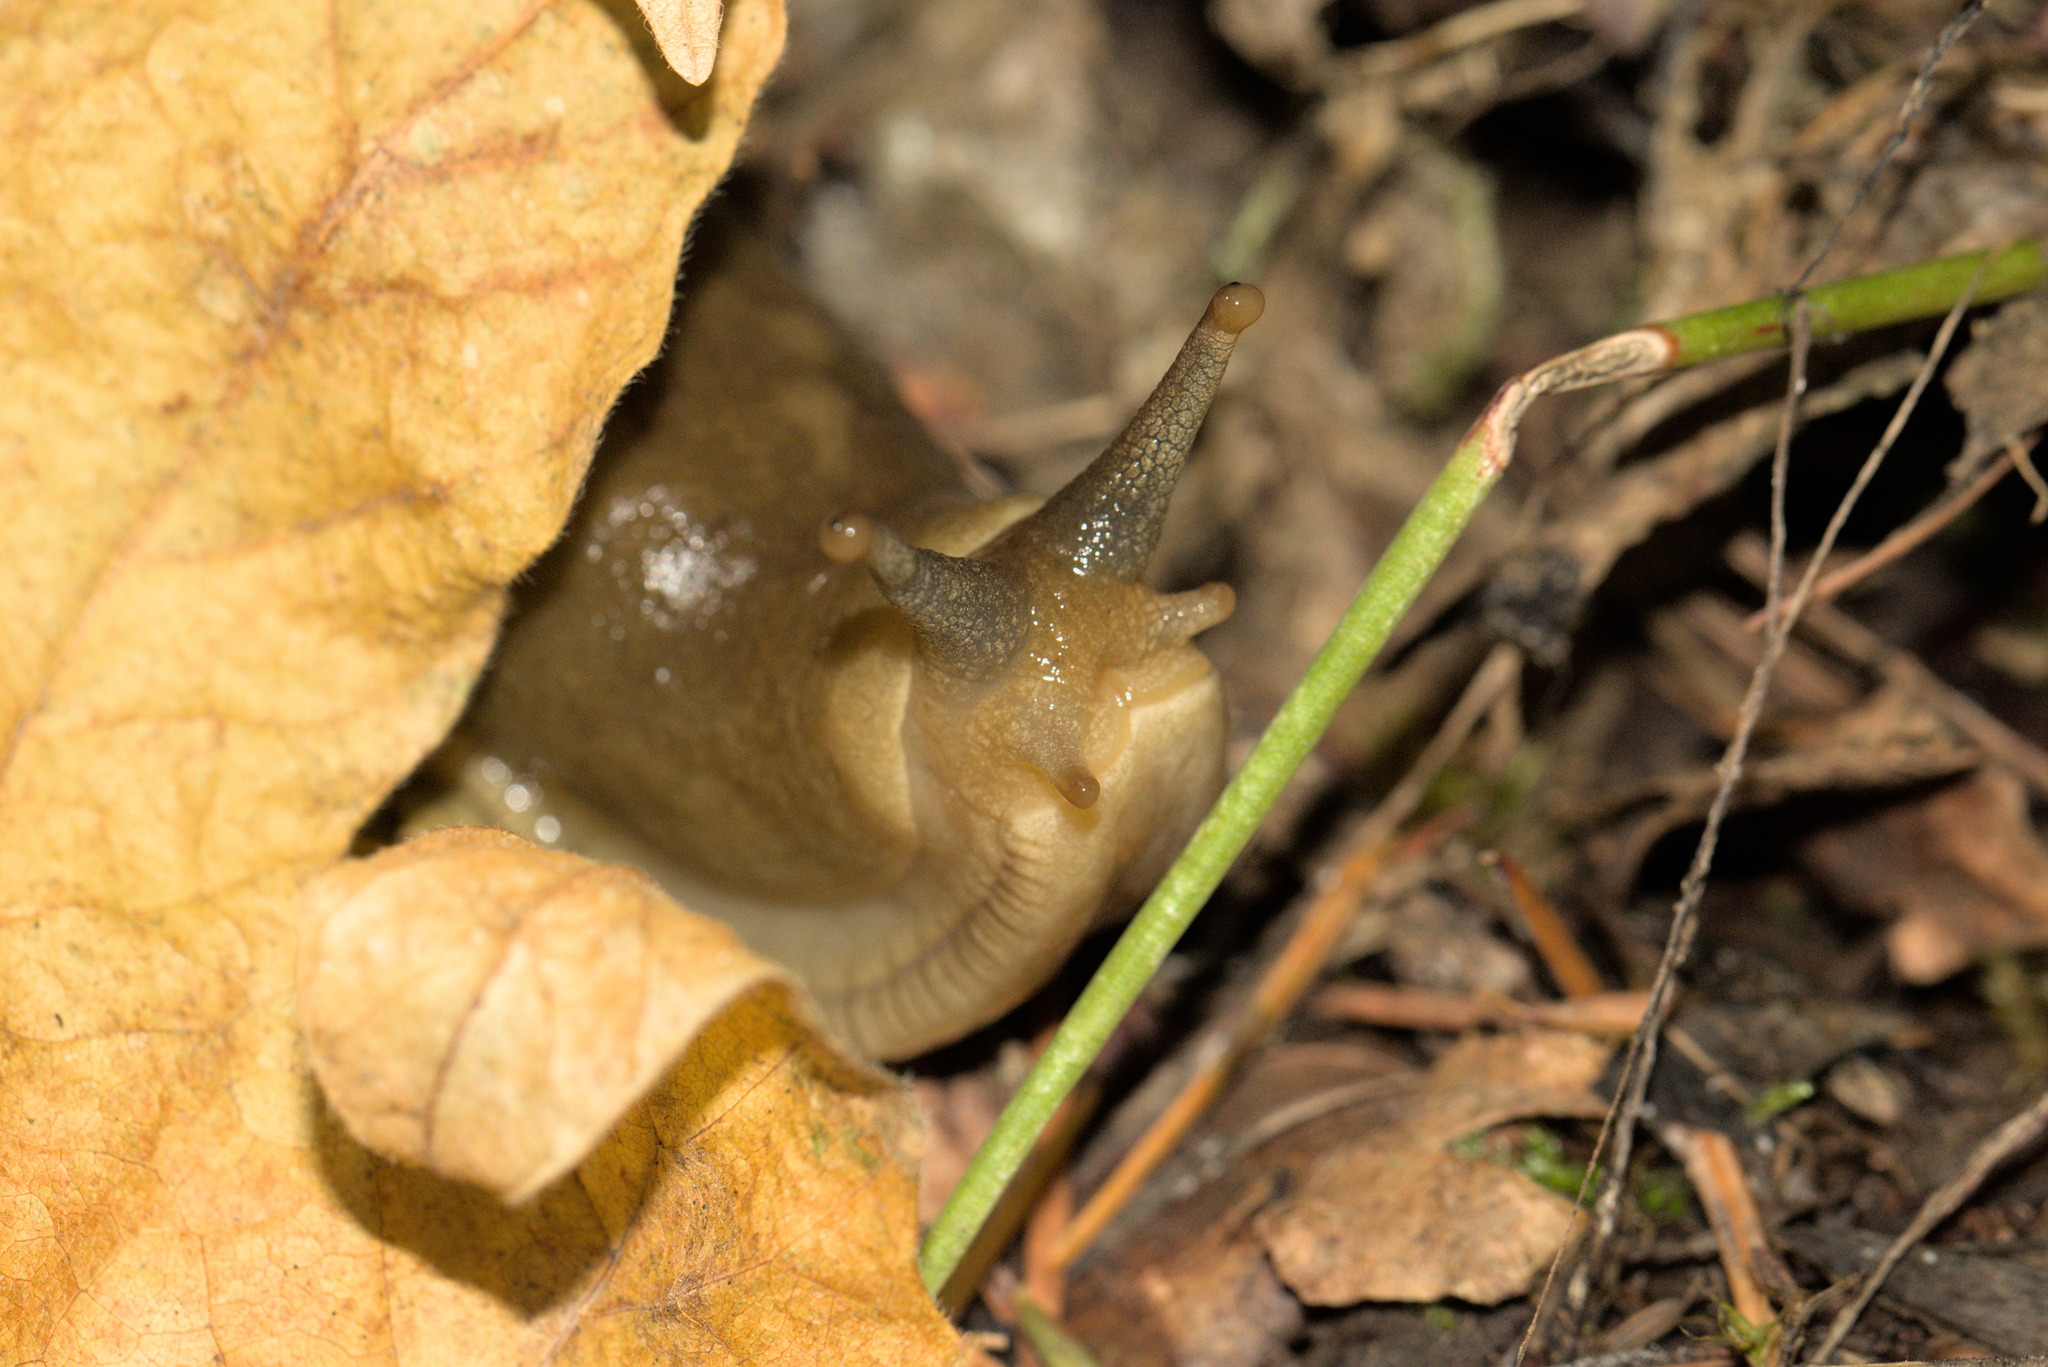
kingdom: Animalia
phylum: Mollusca
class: Gastropoda
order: Stylommatophora
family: Ariolimacidae
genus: Ariolimax
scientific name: Ariolimax columbianus
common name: Pacific banana slug
